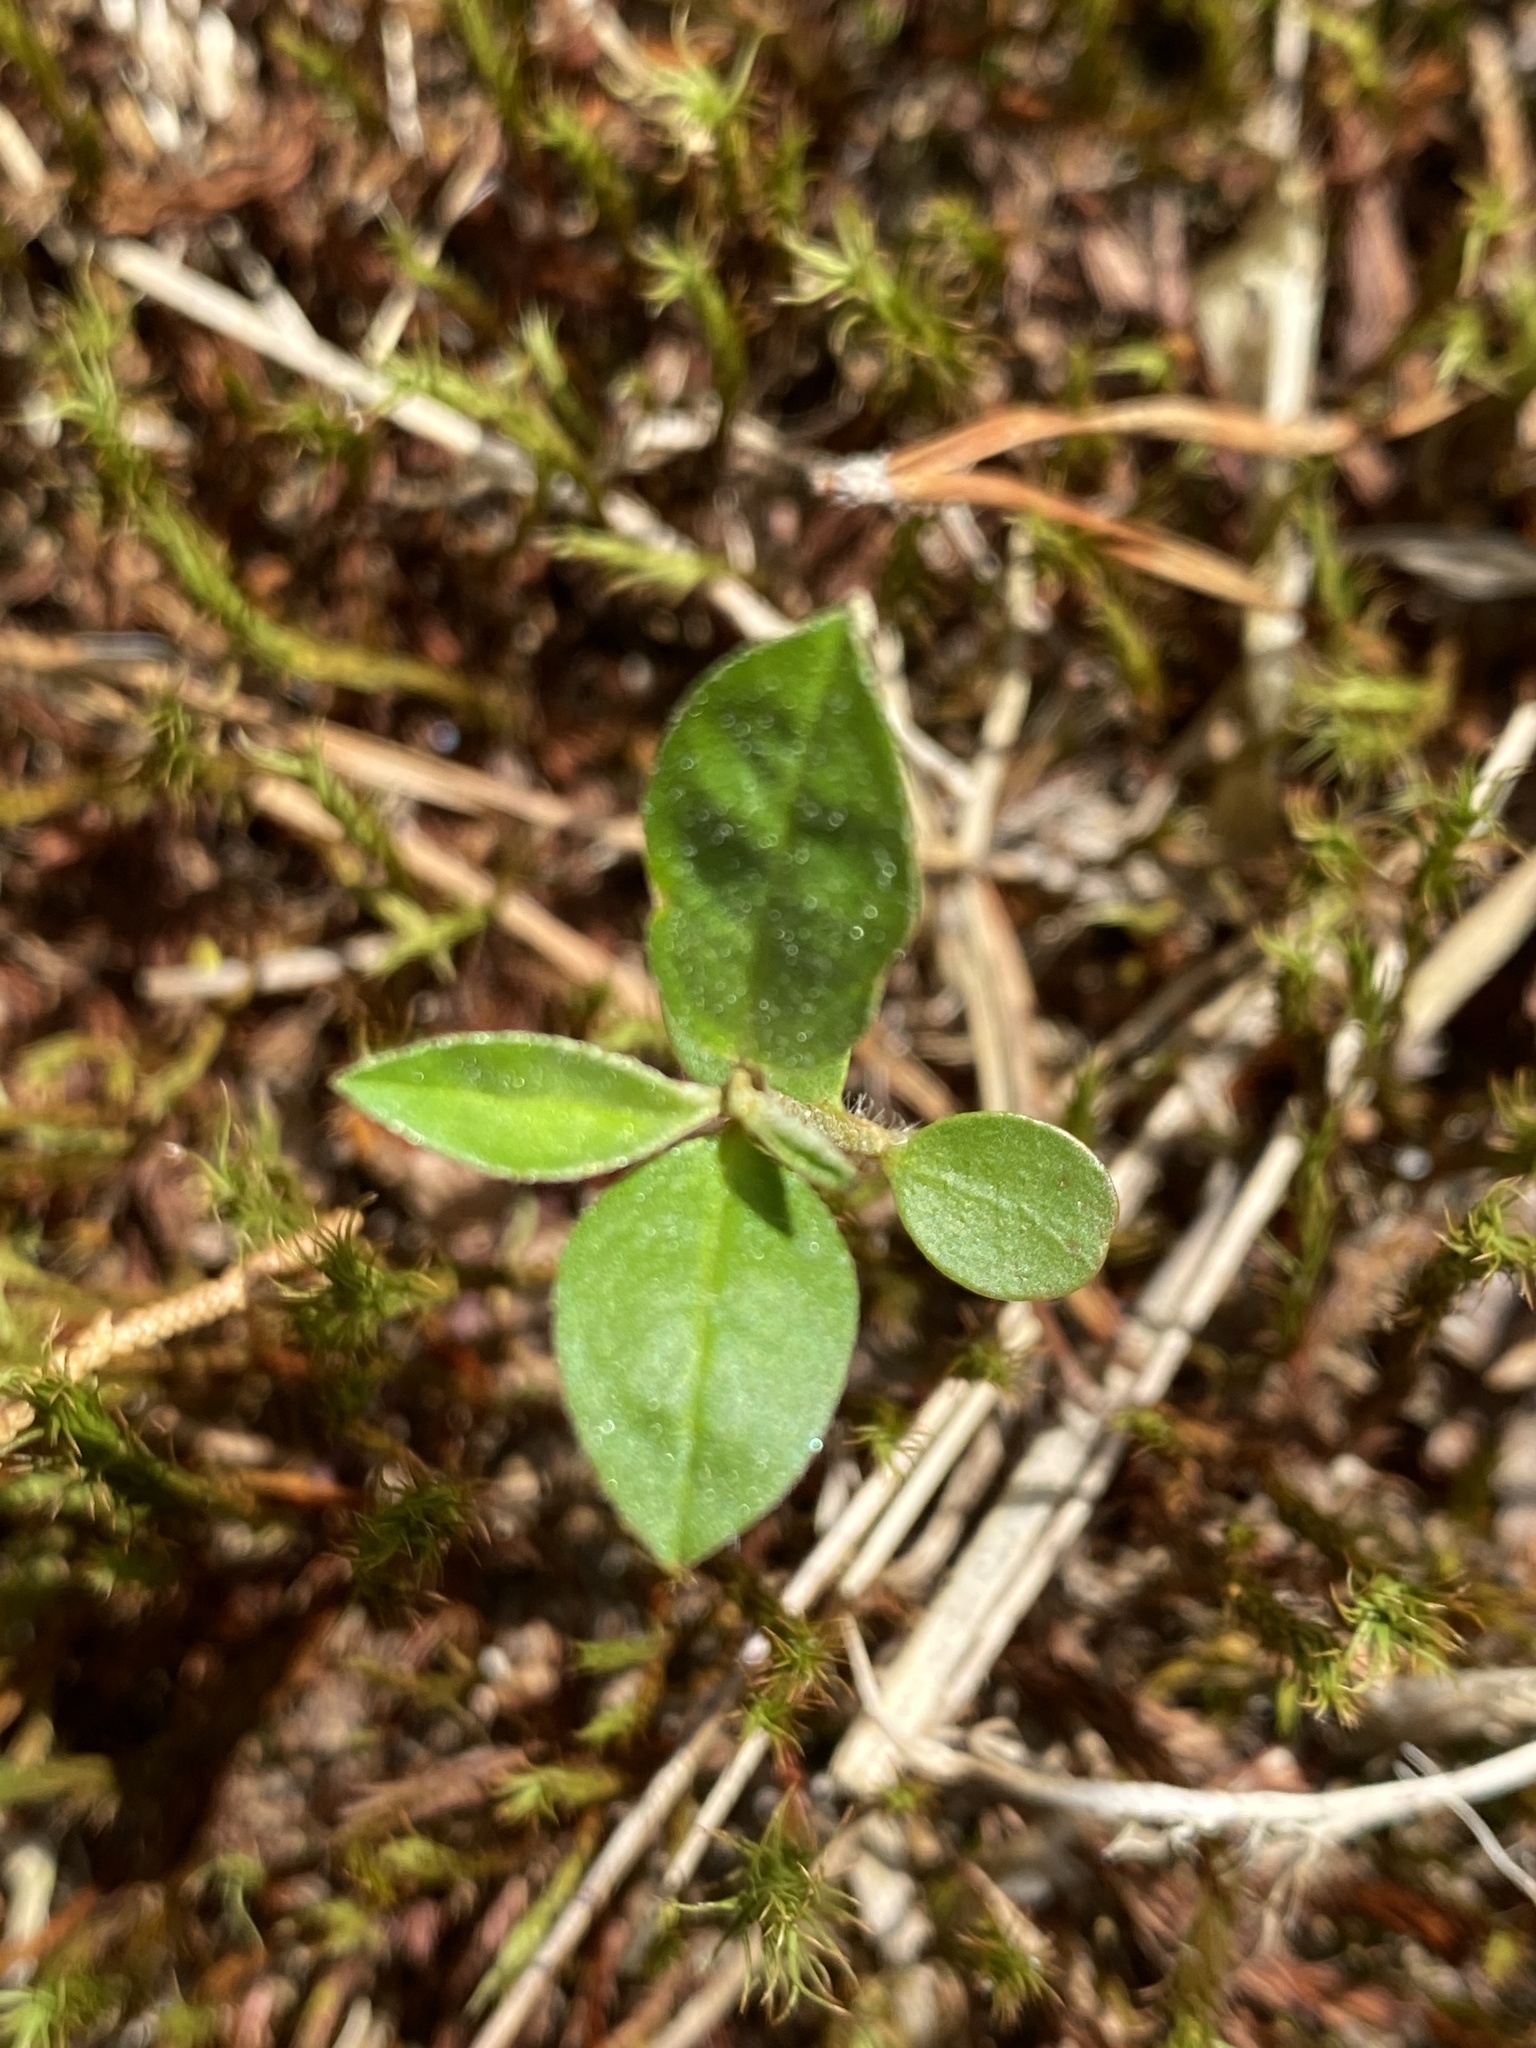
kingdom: Plantae
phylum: Tracheophyta
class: Magnoliopsida
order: Malpighiales
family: Euphorbiaceae
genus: Croton
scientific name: Croton michauxii
